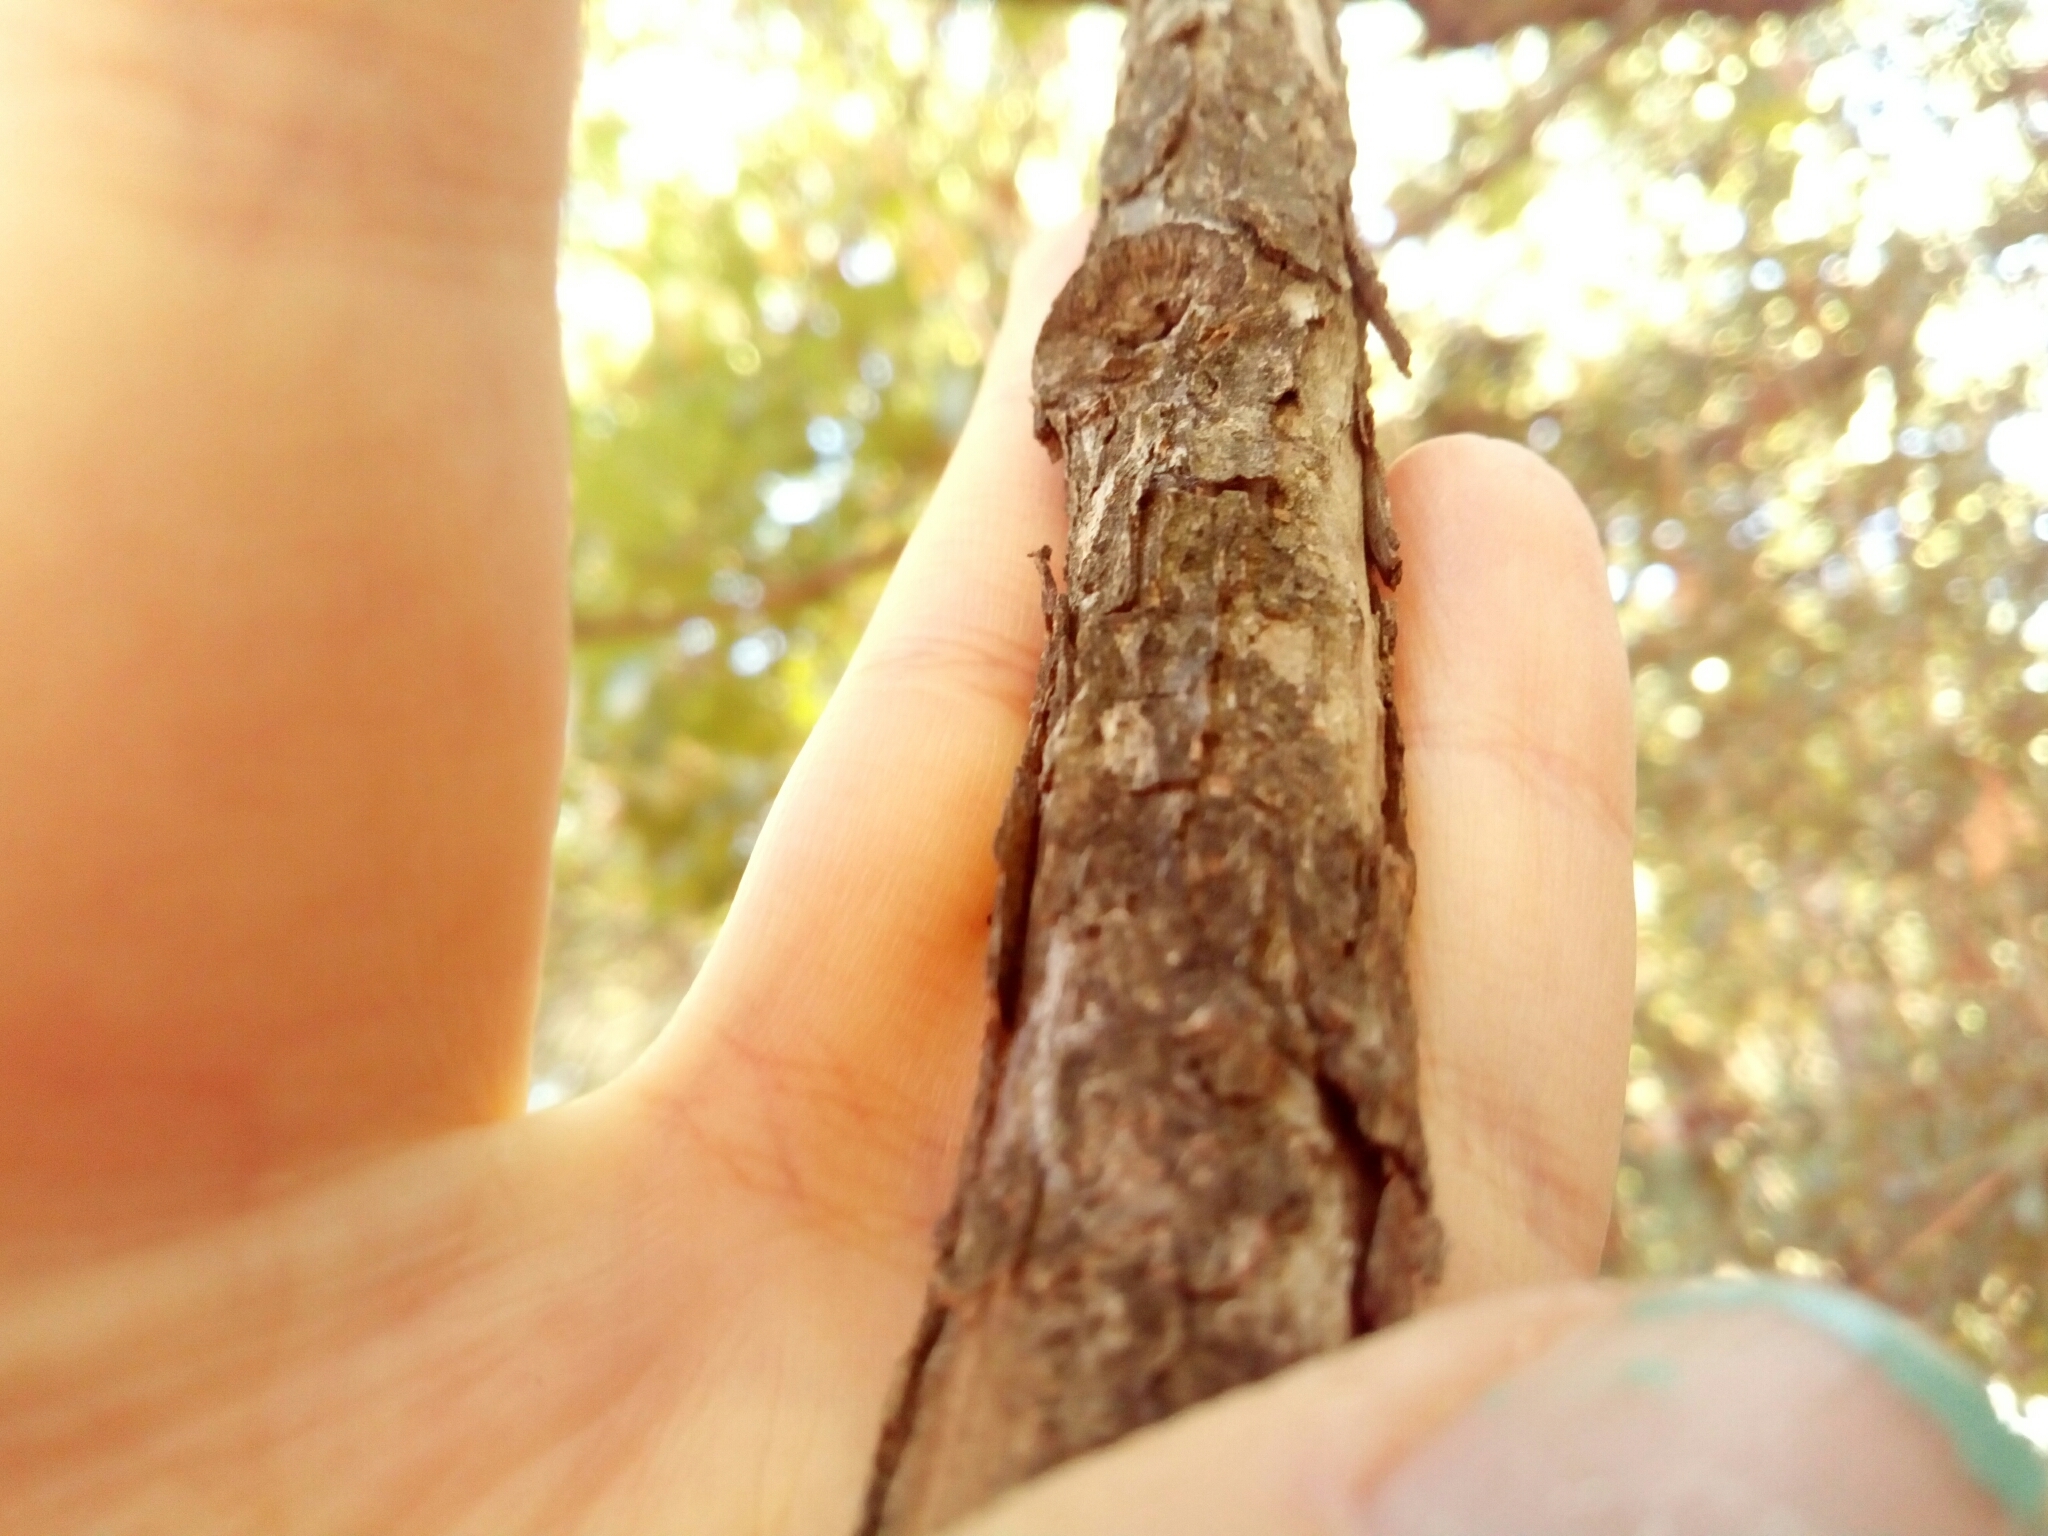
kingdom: Plantae
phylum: Tracheophyta
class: Magnoliopsida
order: Fagales
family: Fagaceae
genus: Quercus
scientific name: Quercus stellata
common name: Post oak
